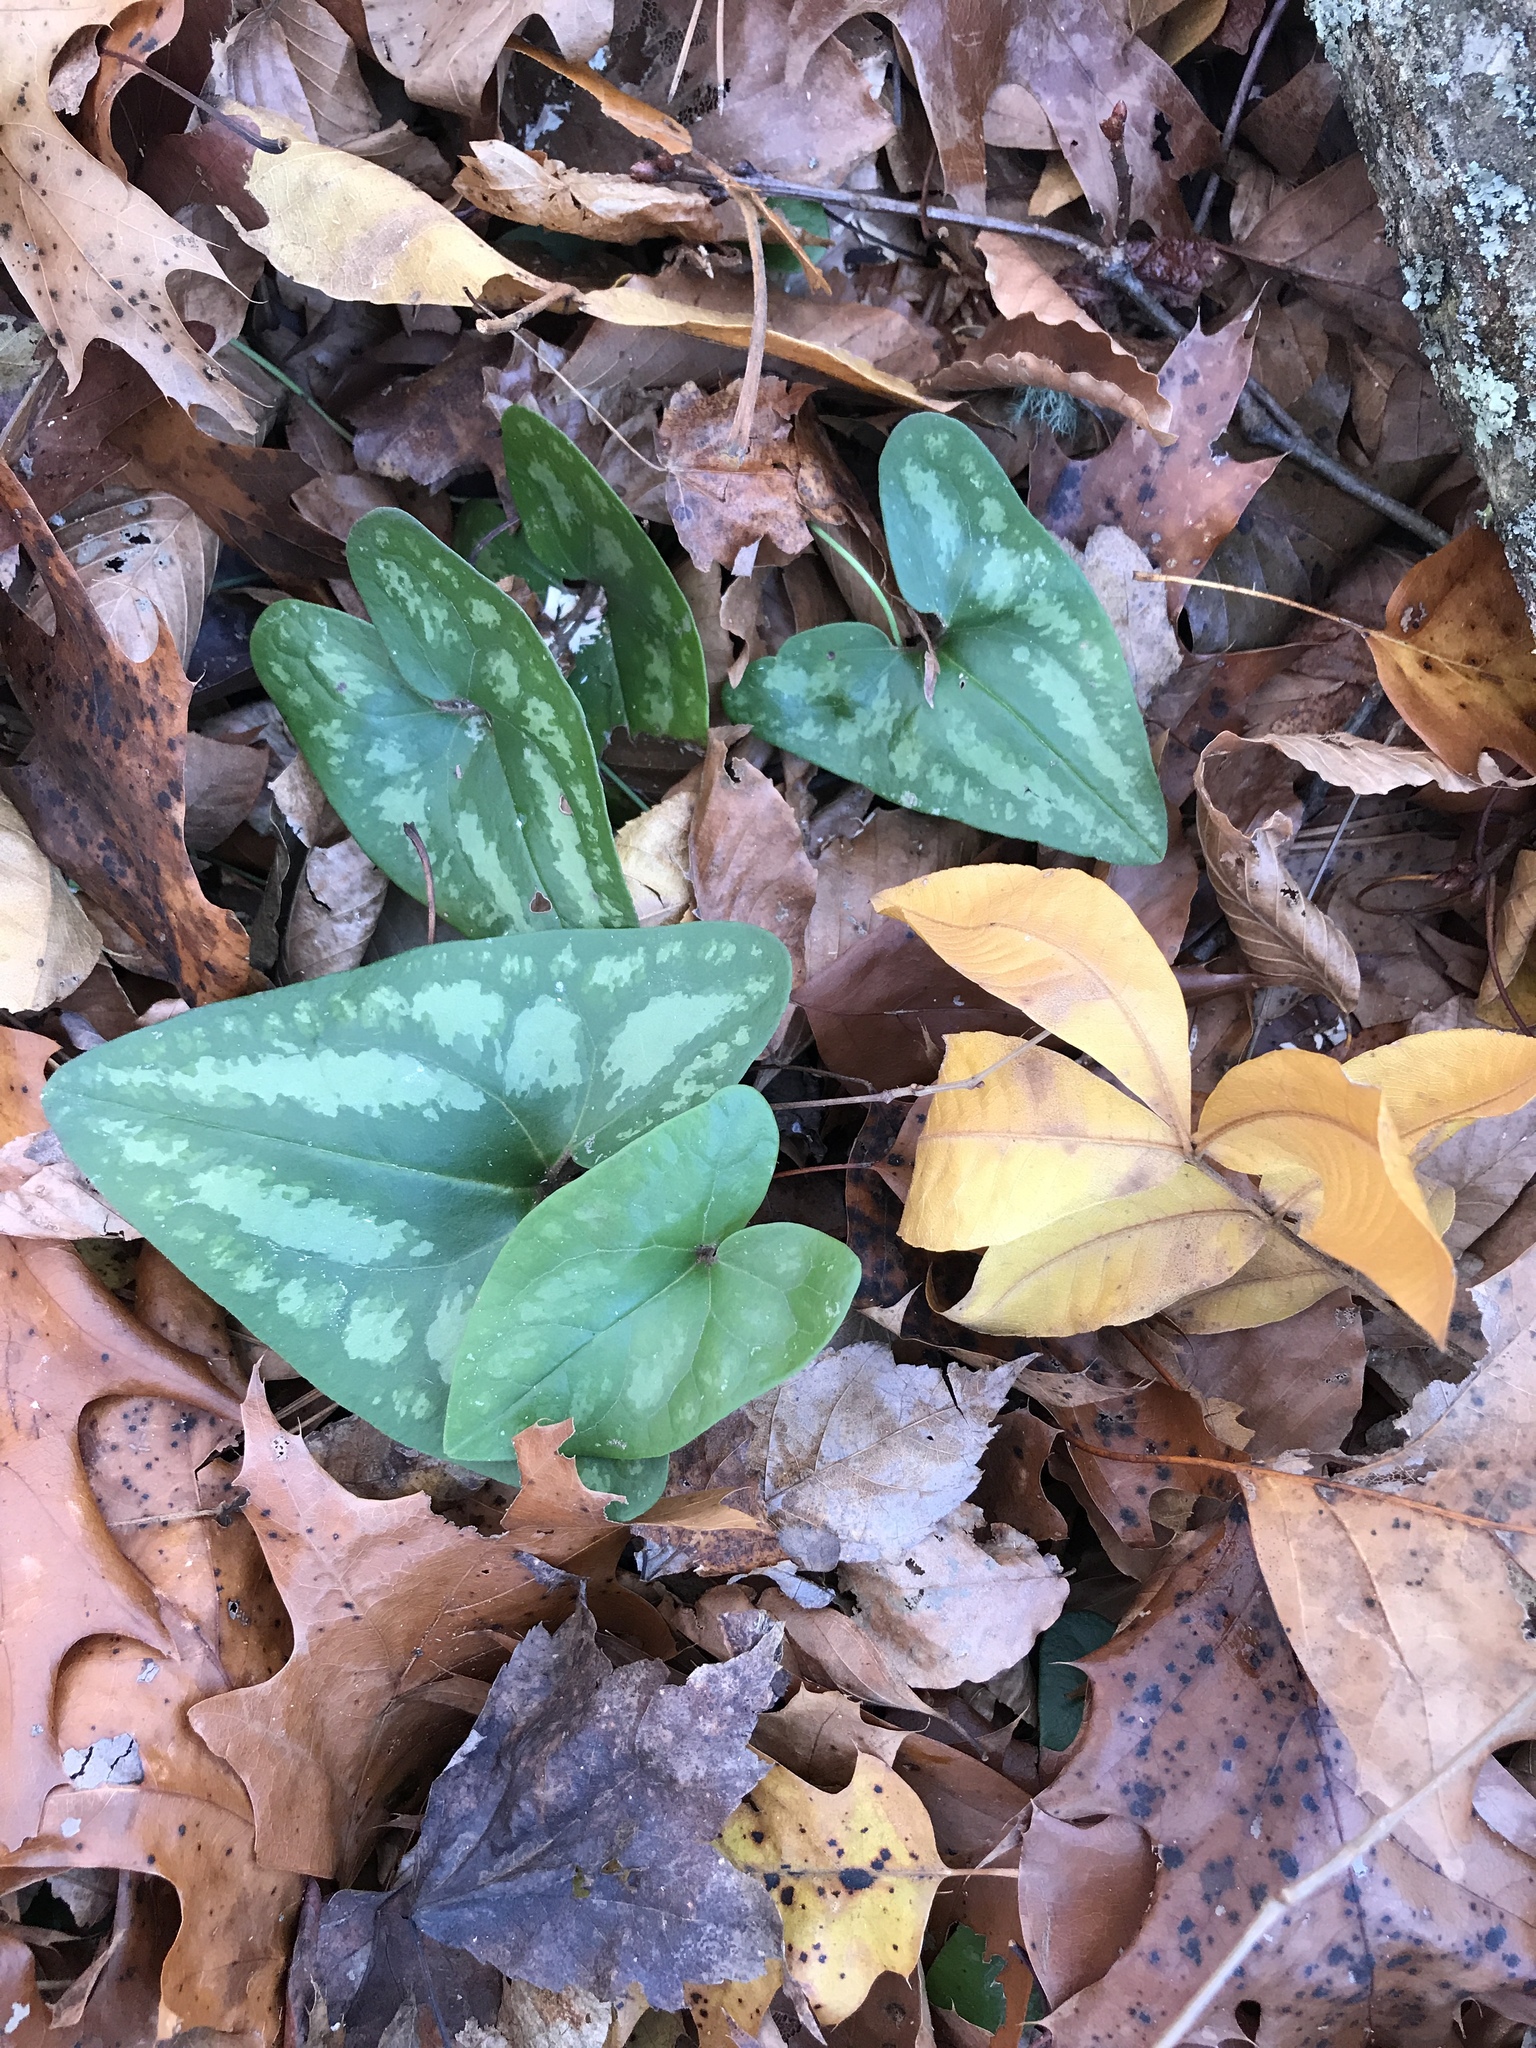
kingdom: Plantae
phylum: Tracheophyta
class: Magnoliopsida
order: Piperales
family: Aristolochiaceae
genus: Hexastylis
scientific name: Hexastylis arifolia
